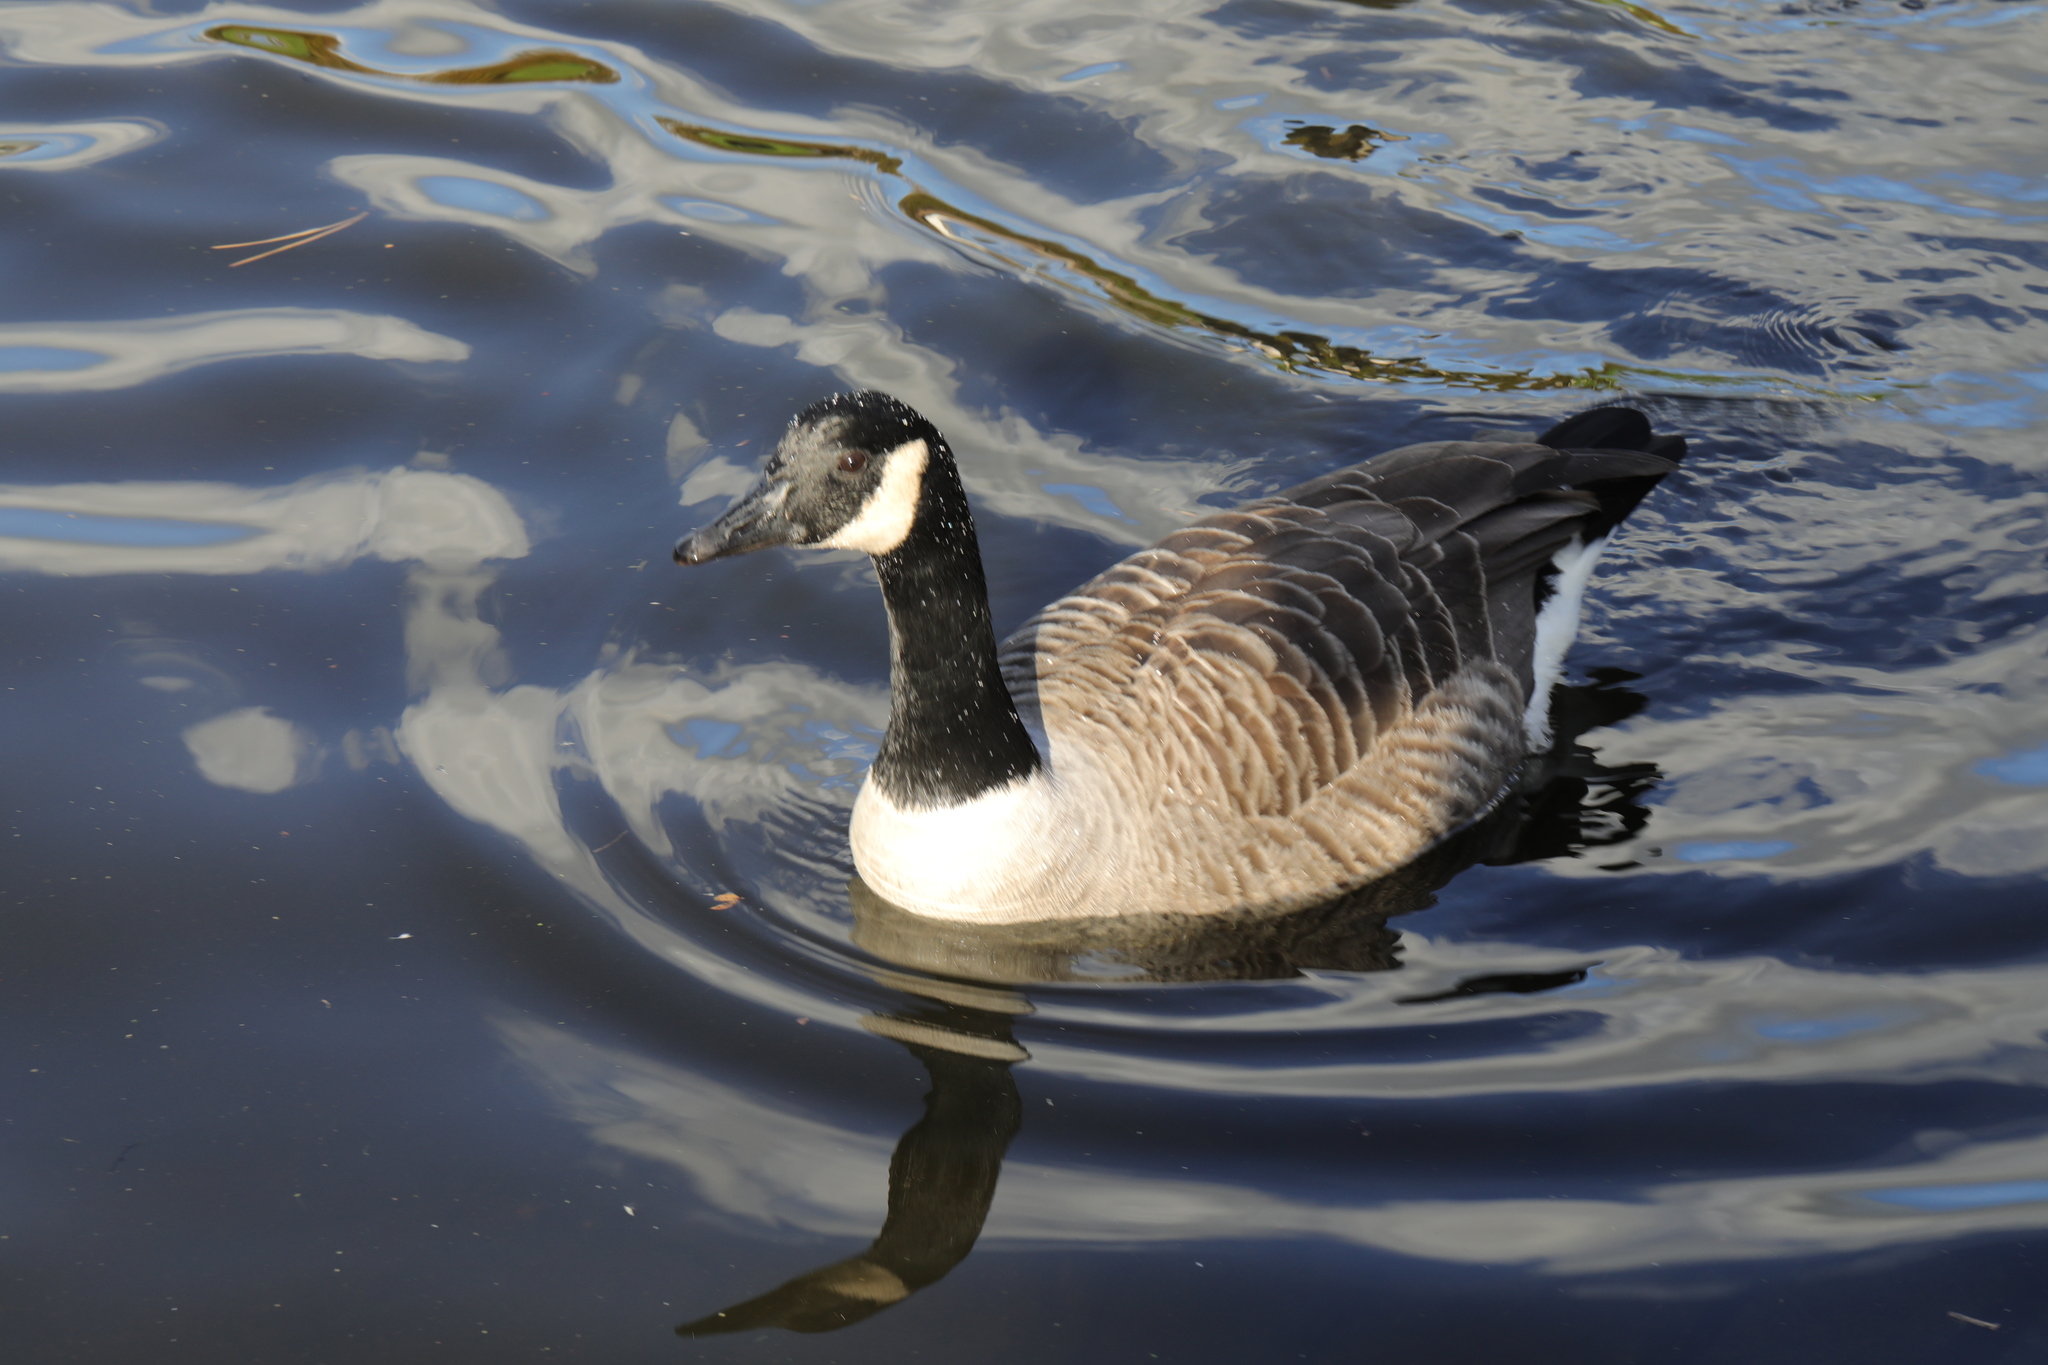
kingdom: Animalia
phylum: Chordata
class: Aves
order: Anseriformes
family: Anatidae
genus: Branta
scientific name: Branta canadensis
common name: Canada goose
